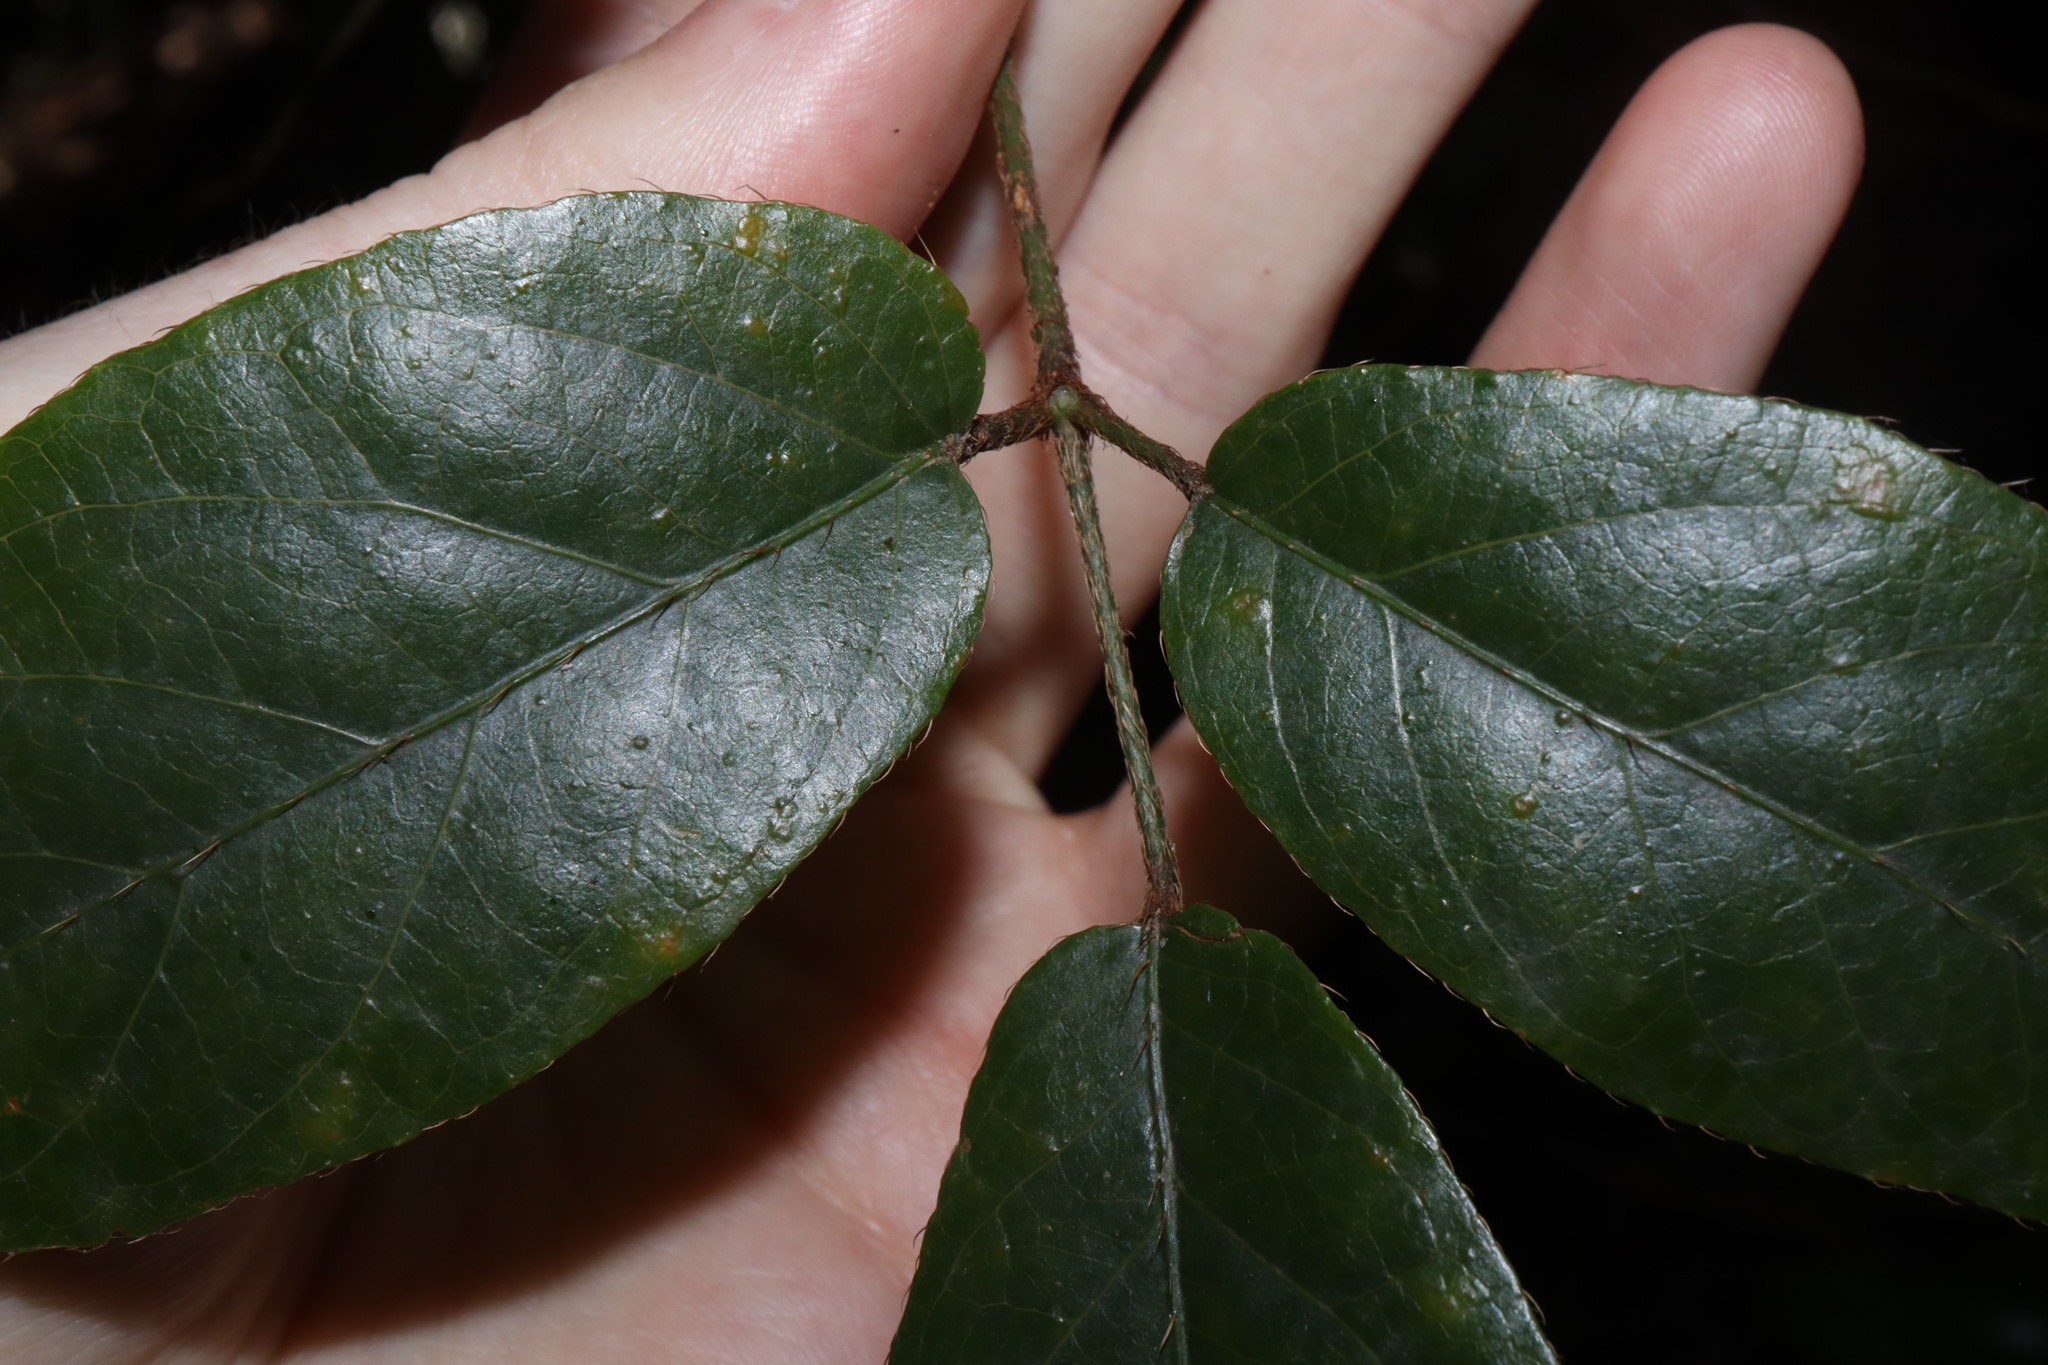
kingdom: Plantae
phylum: Tracheophyta
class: Magnoliopsida
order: Apiales
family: Araliaceae
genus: Cephalaralia
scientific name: Cephalaralia cephalobotrys
